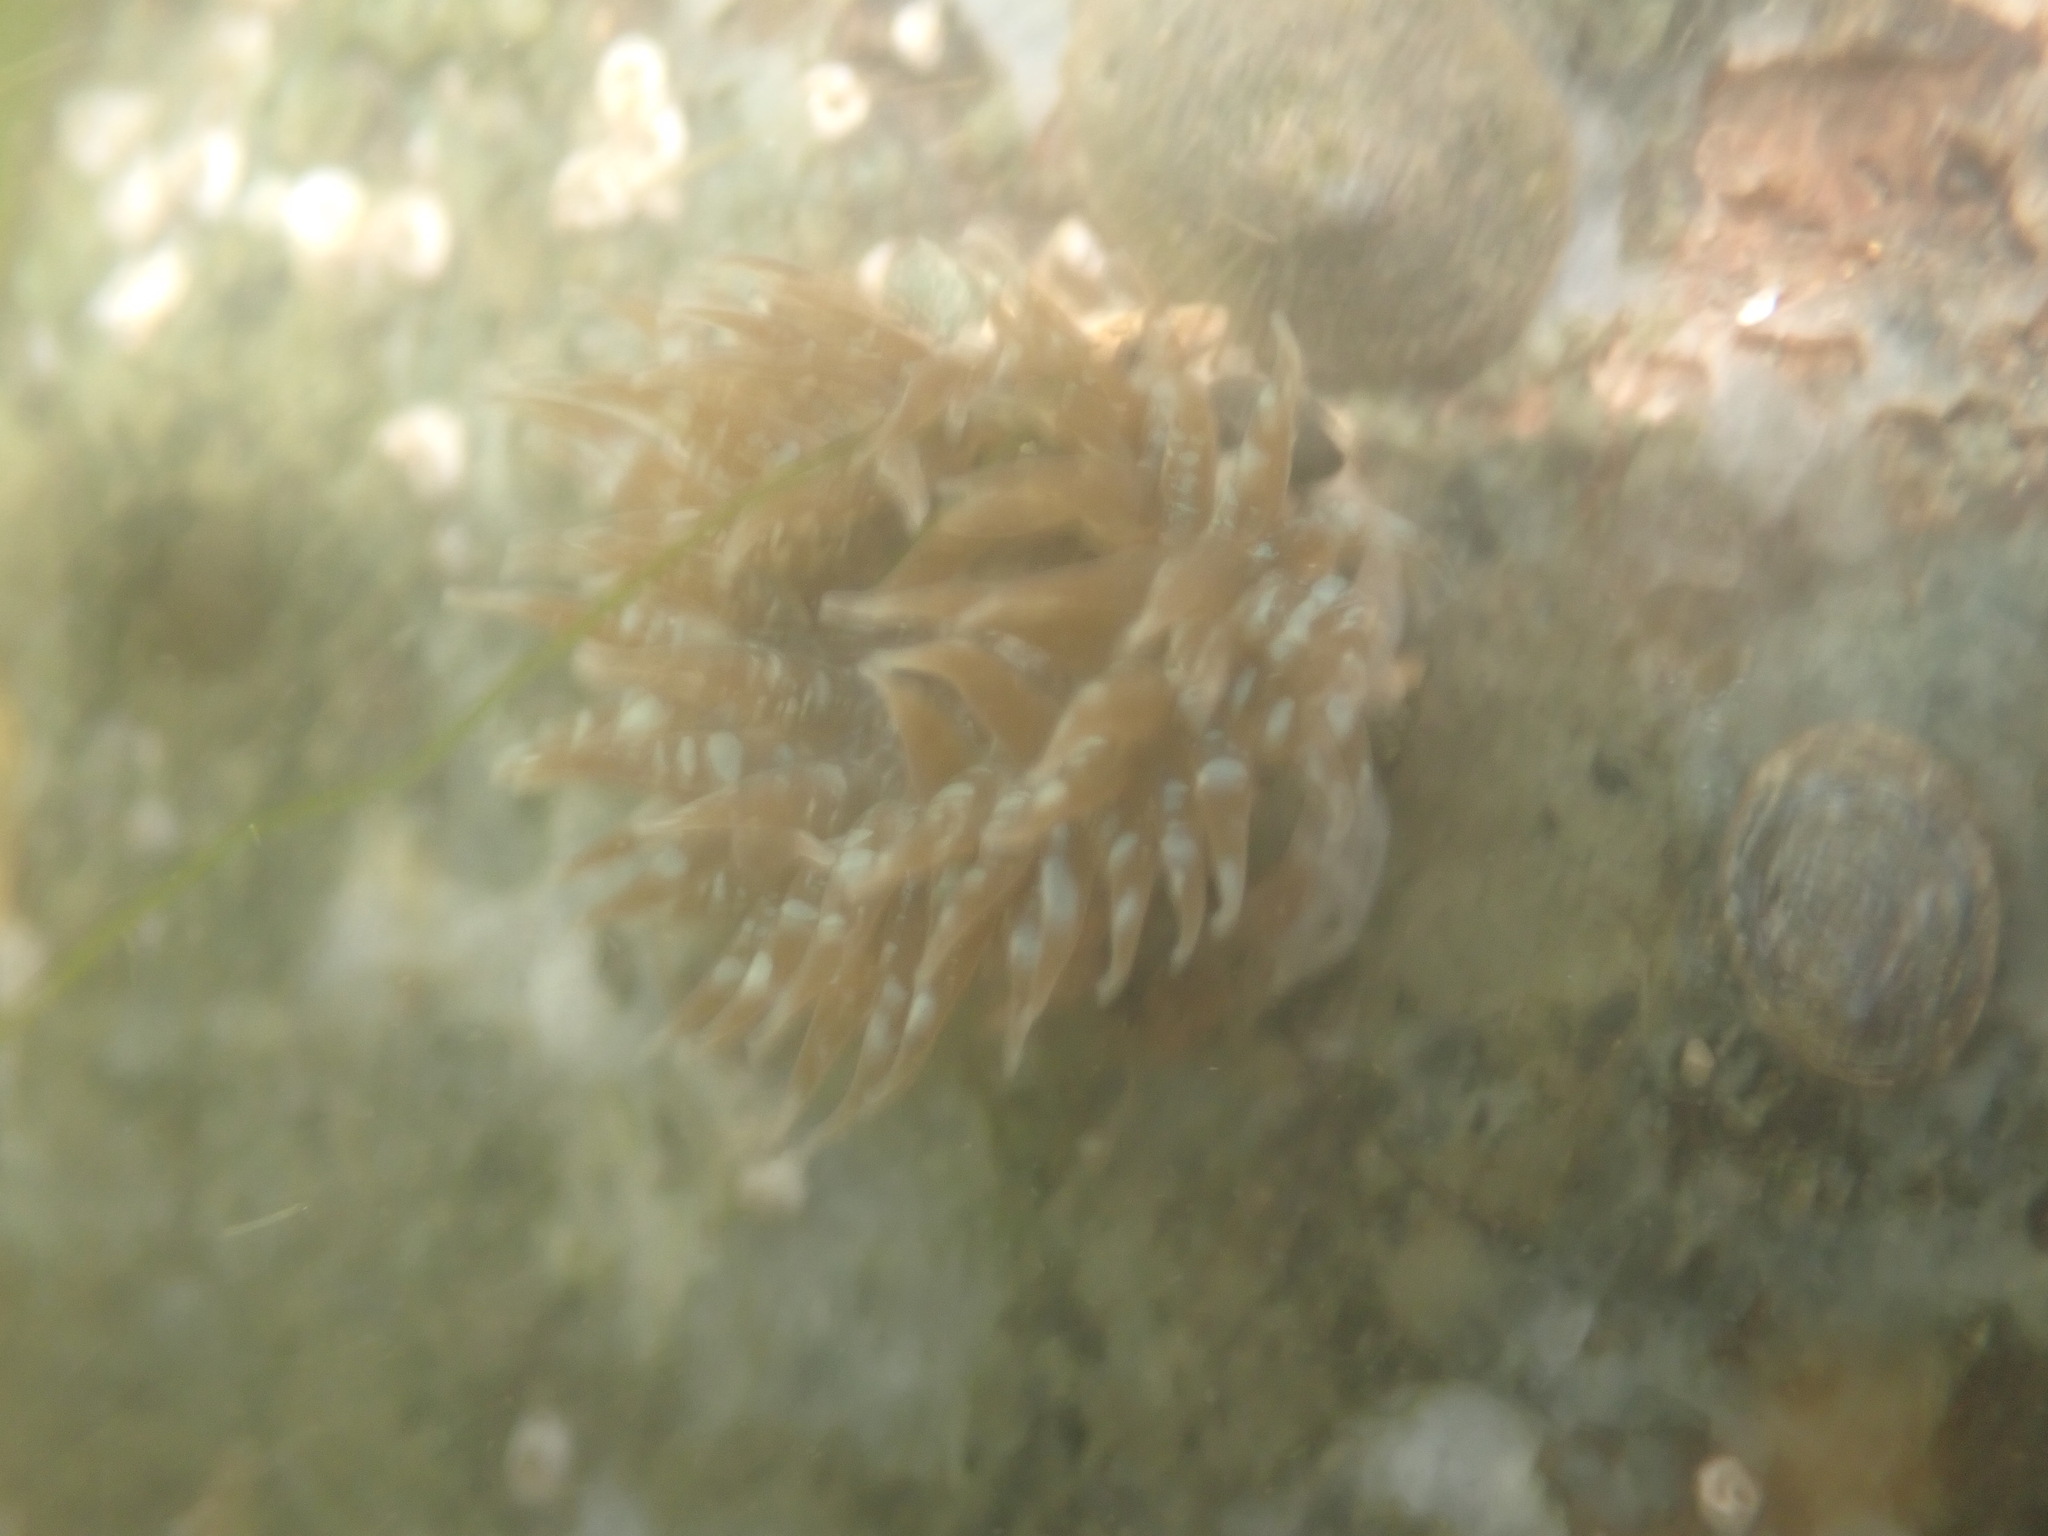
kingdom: Animalia
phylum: Cnidaria
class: Anthozoa
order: Actiniaria
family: Actiniidae
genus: Anthopleura
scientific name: Anthopleura hermaphroditica
